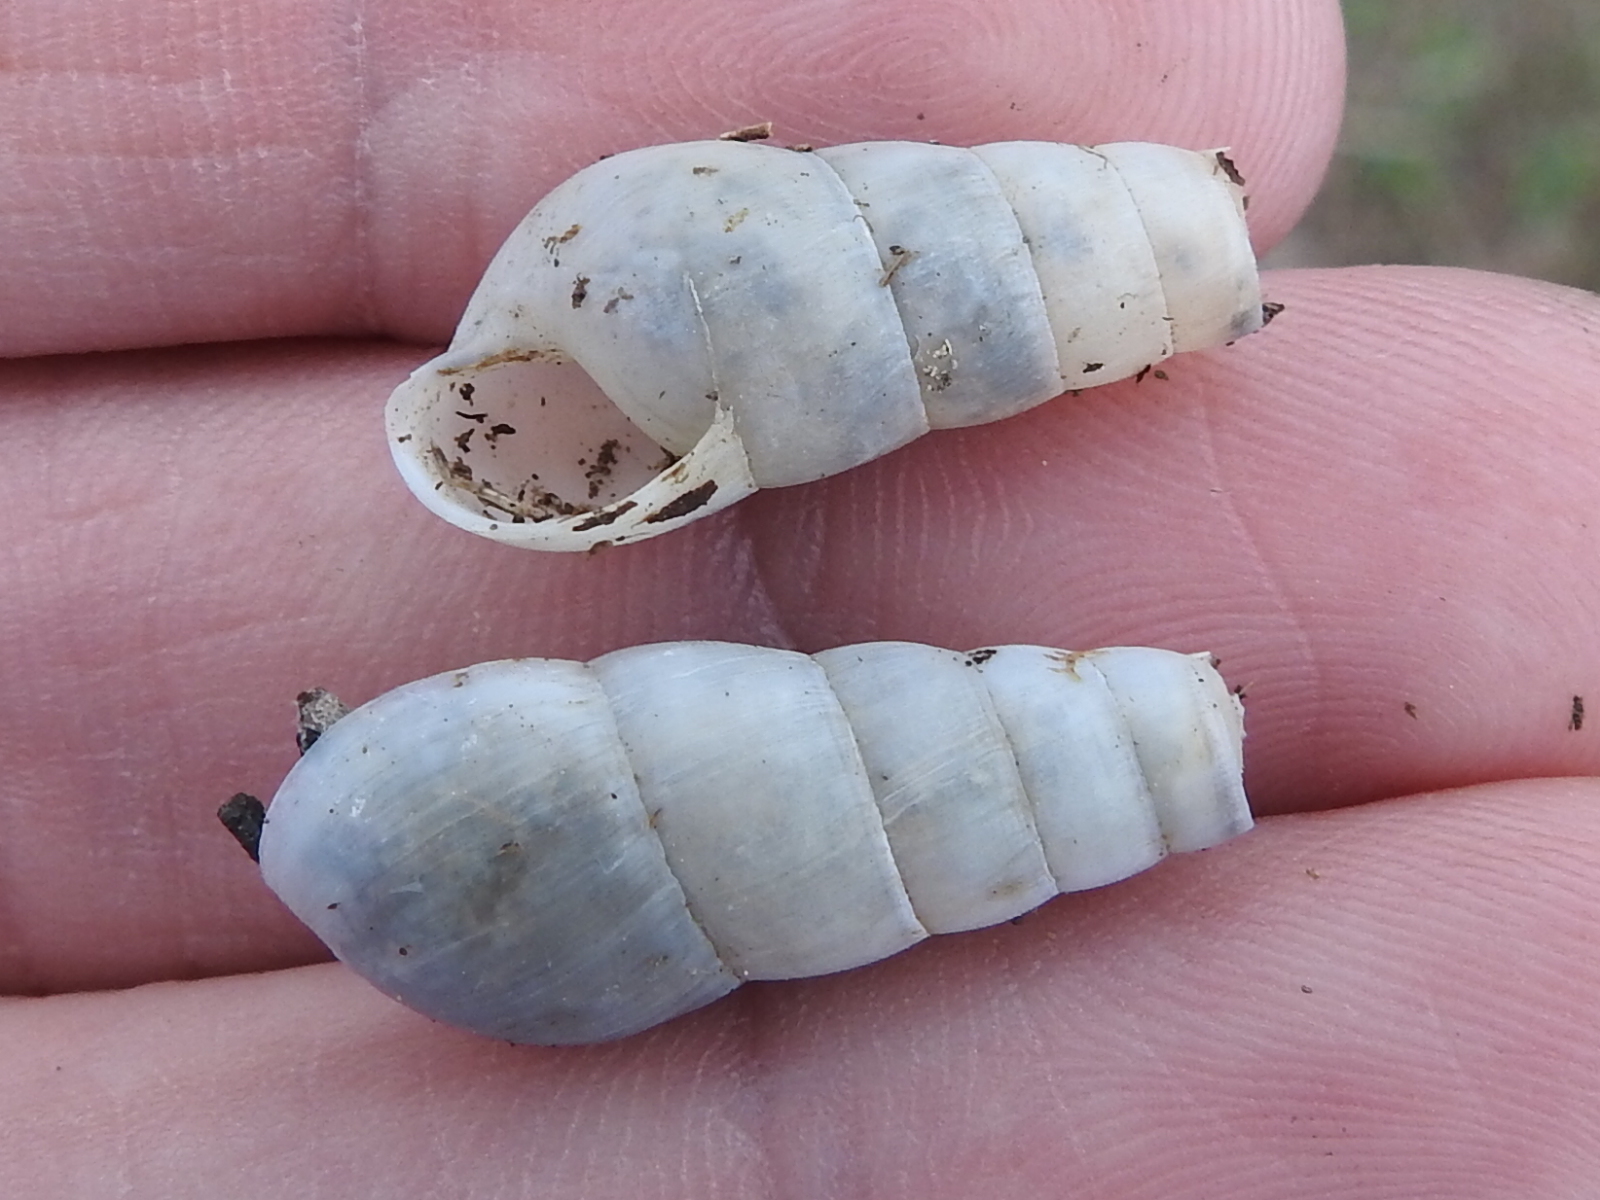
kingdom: Animalia
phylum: Mollusca
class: Gastropoda
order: Stylommatophora
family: Achatinidae
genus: Rumina
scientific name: Rumina decollata
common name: Decollate snail
